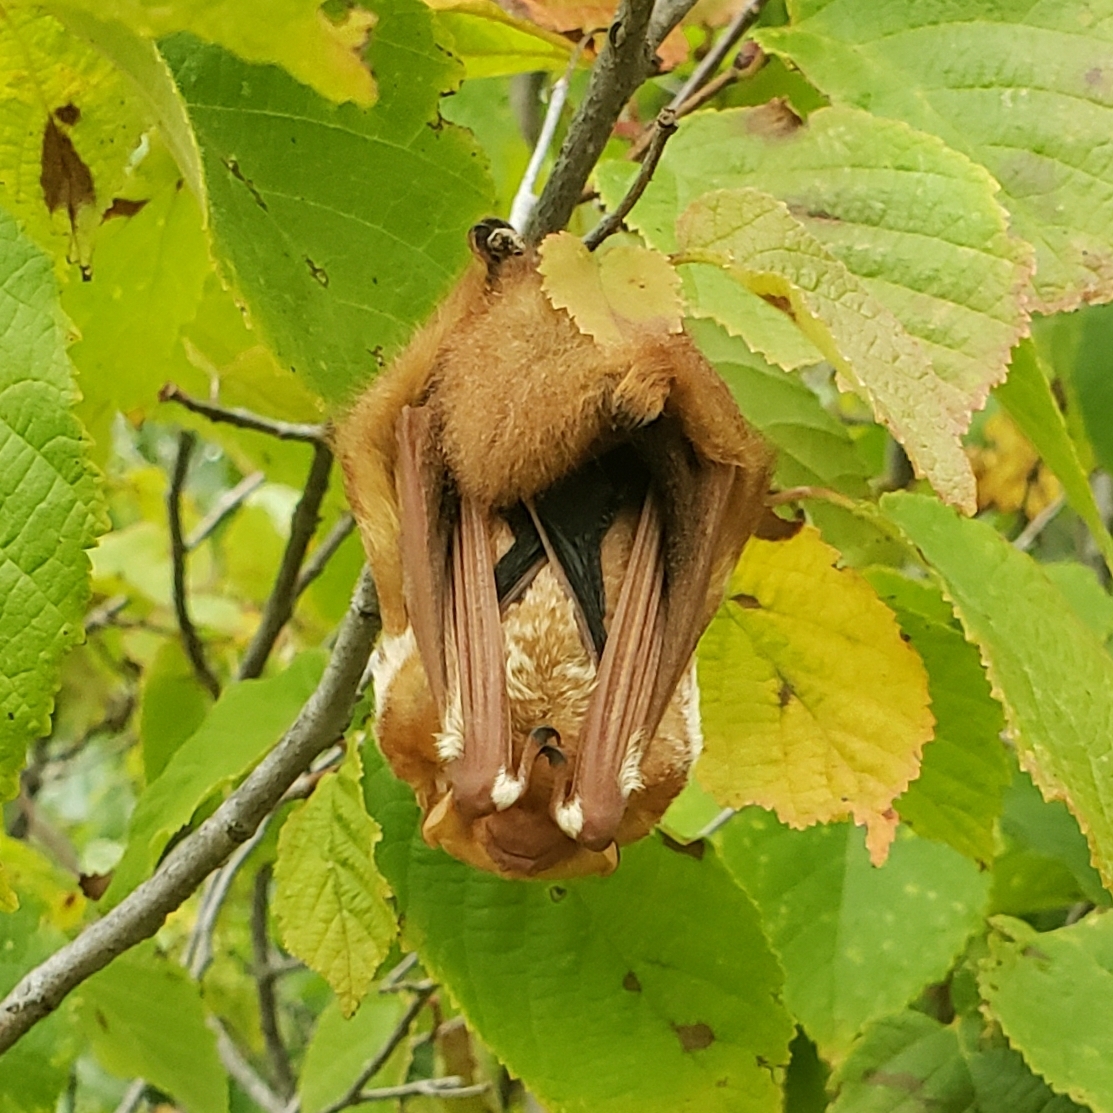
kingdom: Animalia
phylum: Chordata
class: Mammalia
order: Chiroptera
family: Vespertilionidae
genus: Lasiurus
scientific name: Lasiurus borealis
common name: Eastern red bat
